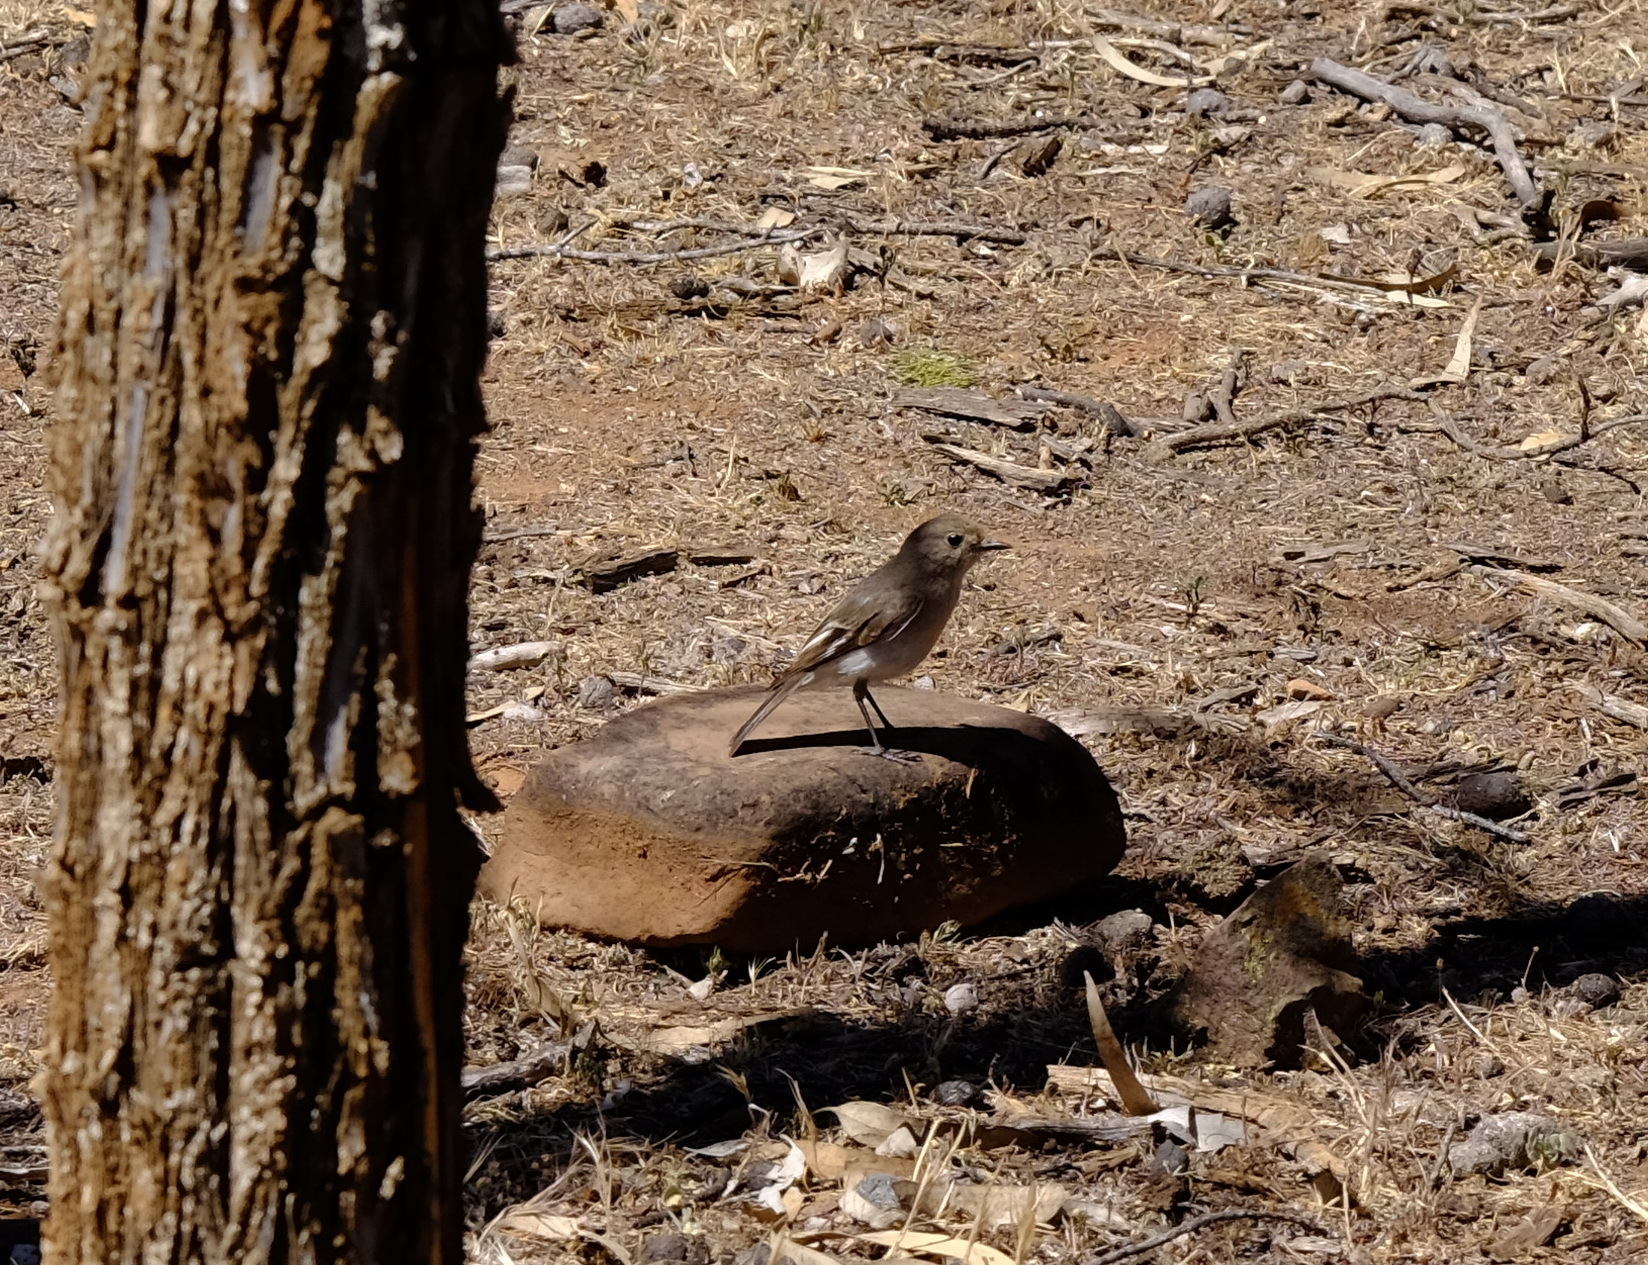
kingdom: Animalia
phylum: Chordata
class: Aves
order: Passeriformes
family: Petroicidae
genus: Petroica
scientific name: Petroica goodenovii
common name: Red-capped robin
